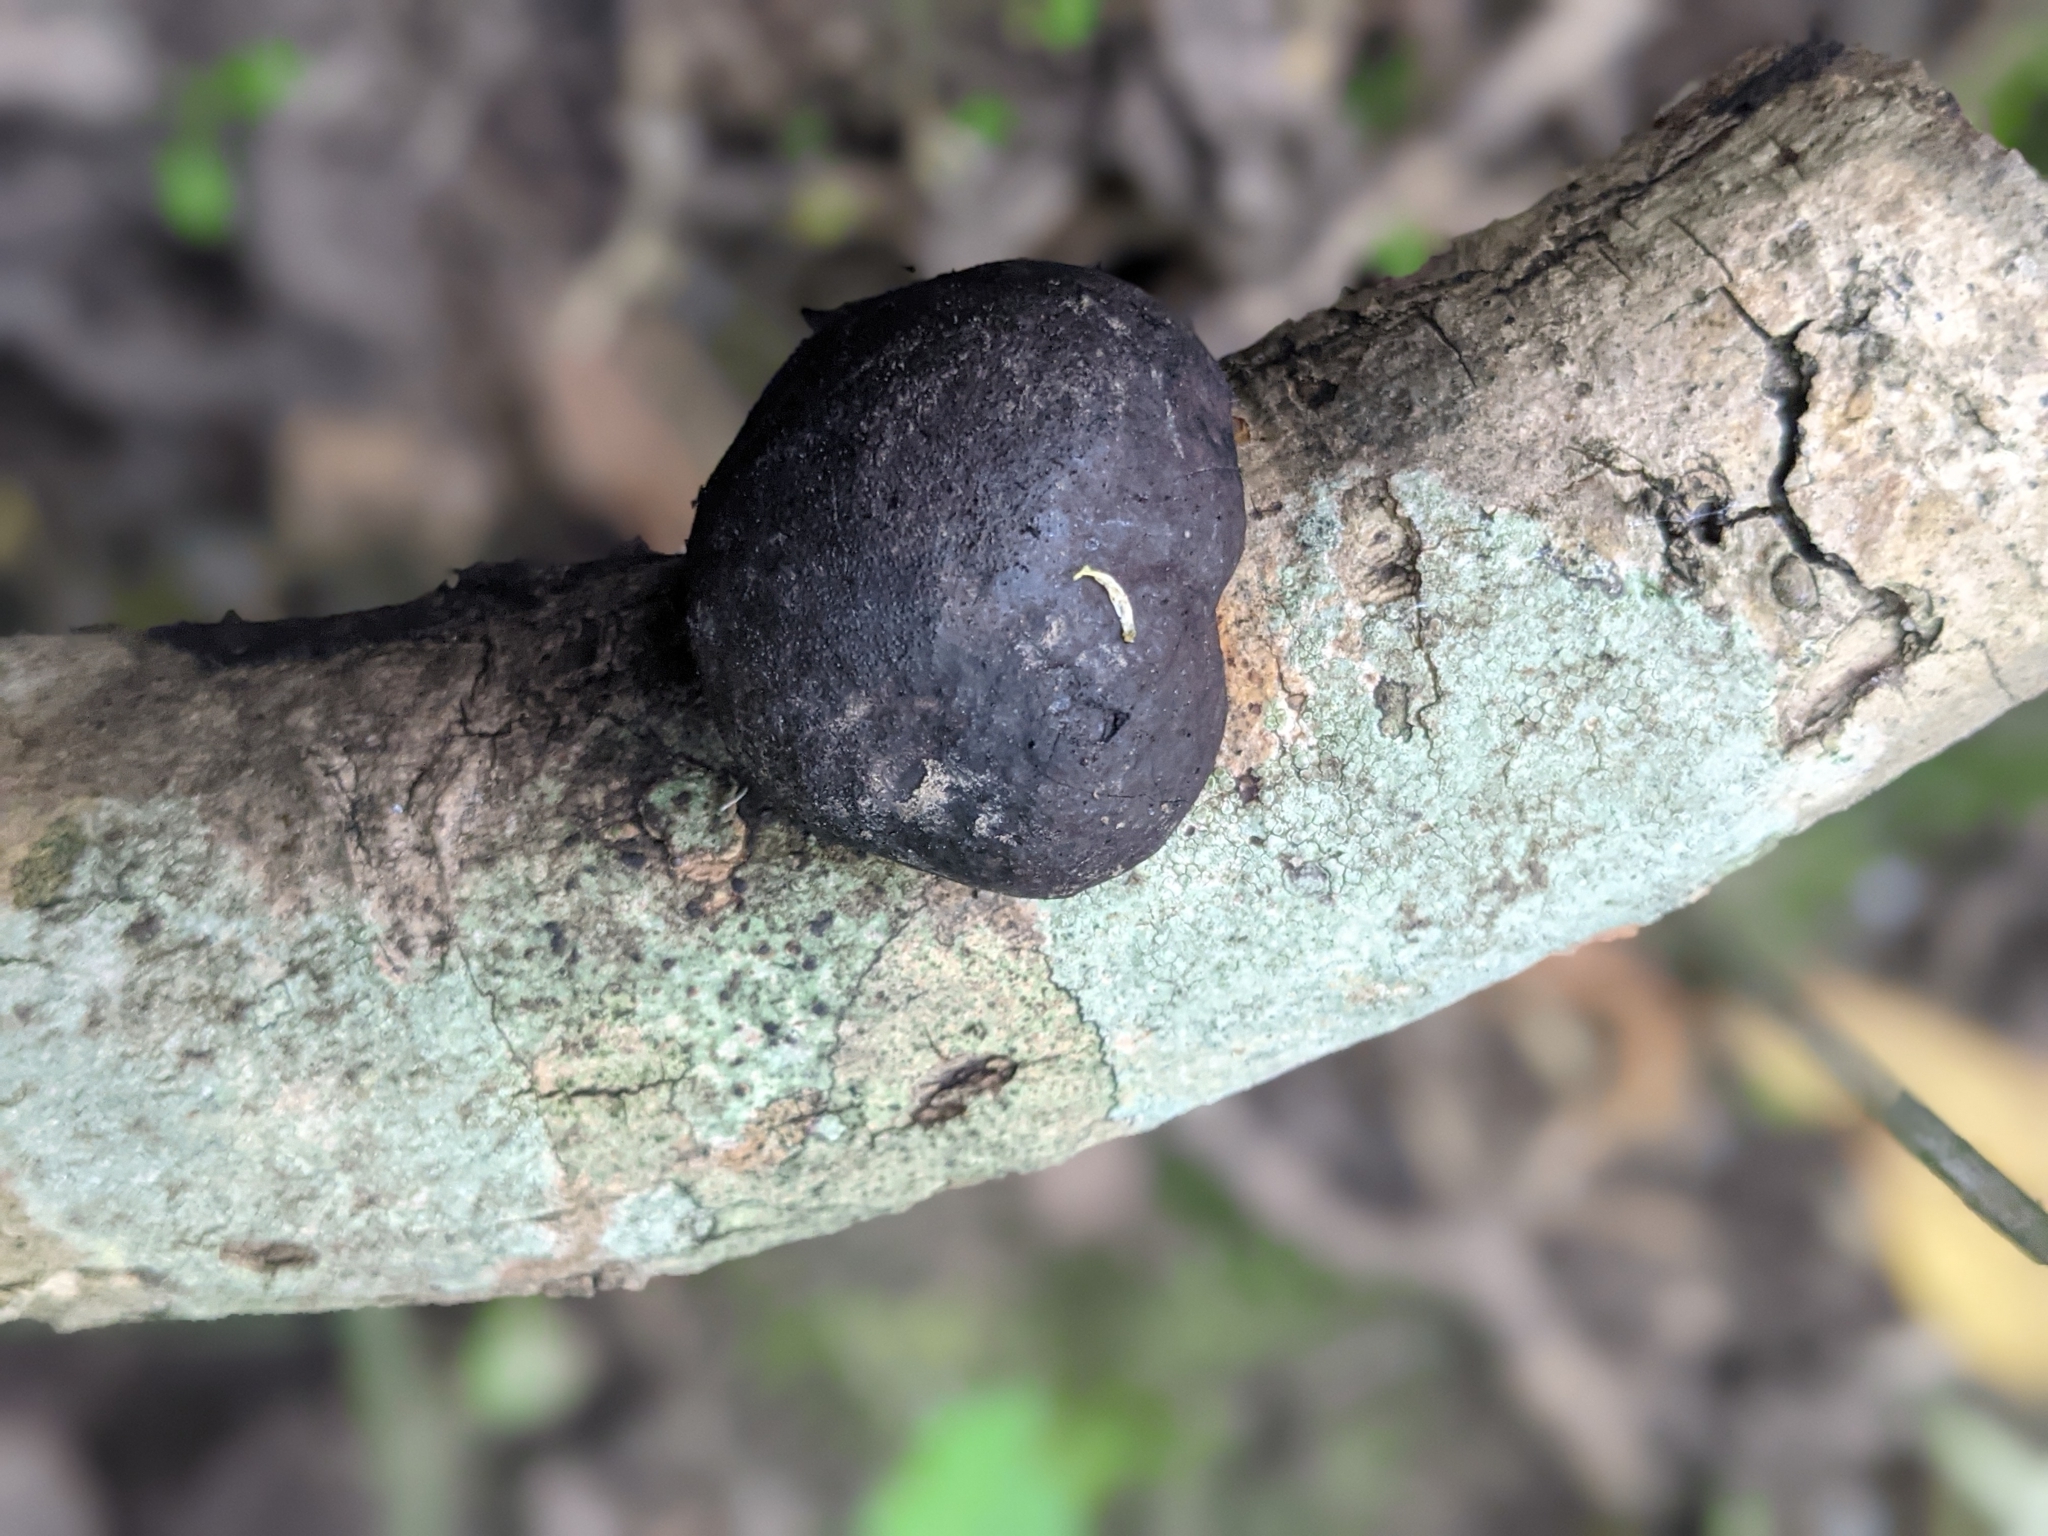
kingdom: Fungi
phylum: Ascomycota
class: Sordariomycetes
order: Xylariales
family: Hypoxylaceae
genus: Daldinia
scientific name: Daldinia concentrica
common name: Cramp balls
